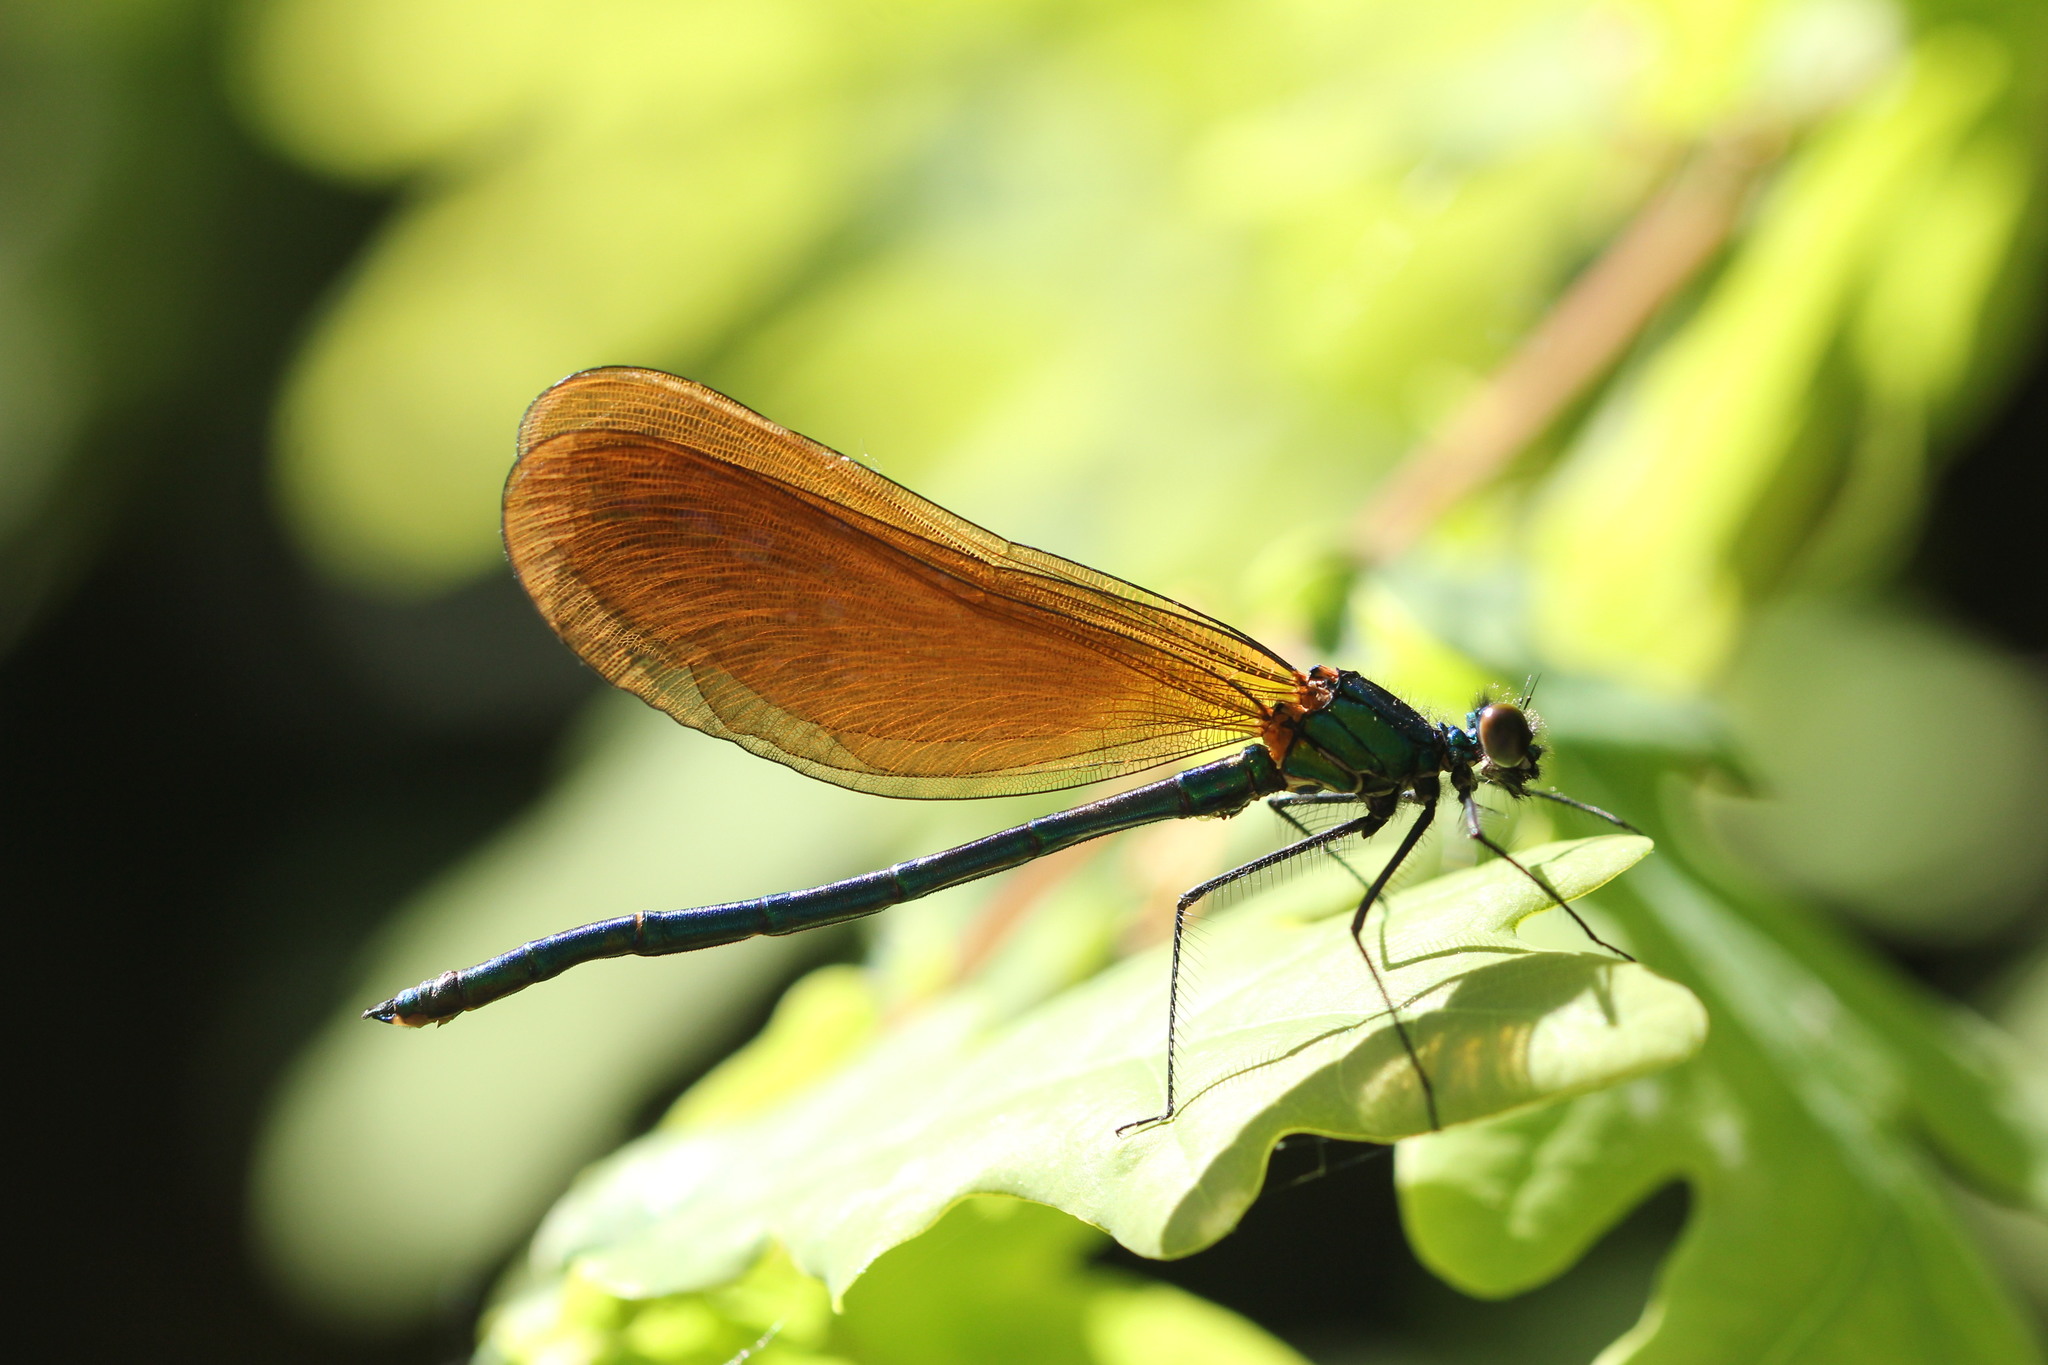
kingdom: Animalia
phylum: Arthropoda
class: Insecta
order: Odonata
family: Calopterygidae
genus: Calopteryx
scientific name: Calopteryx virgo
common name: Beautiful demoiselle
